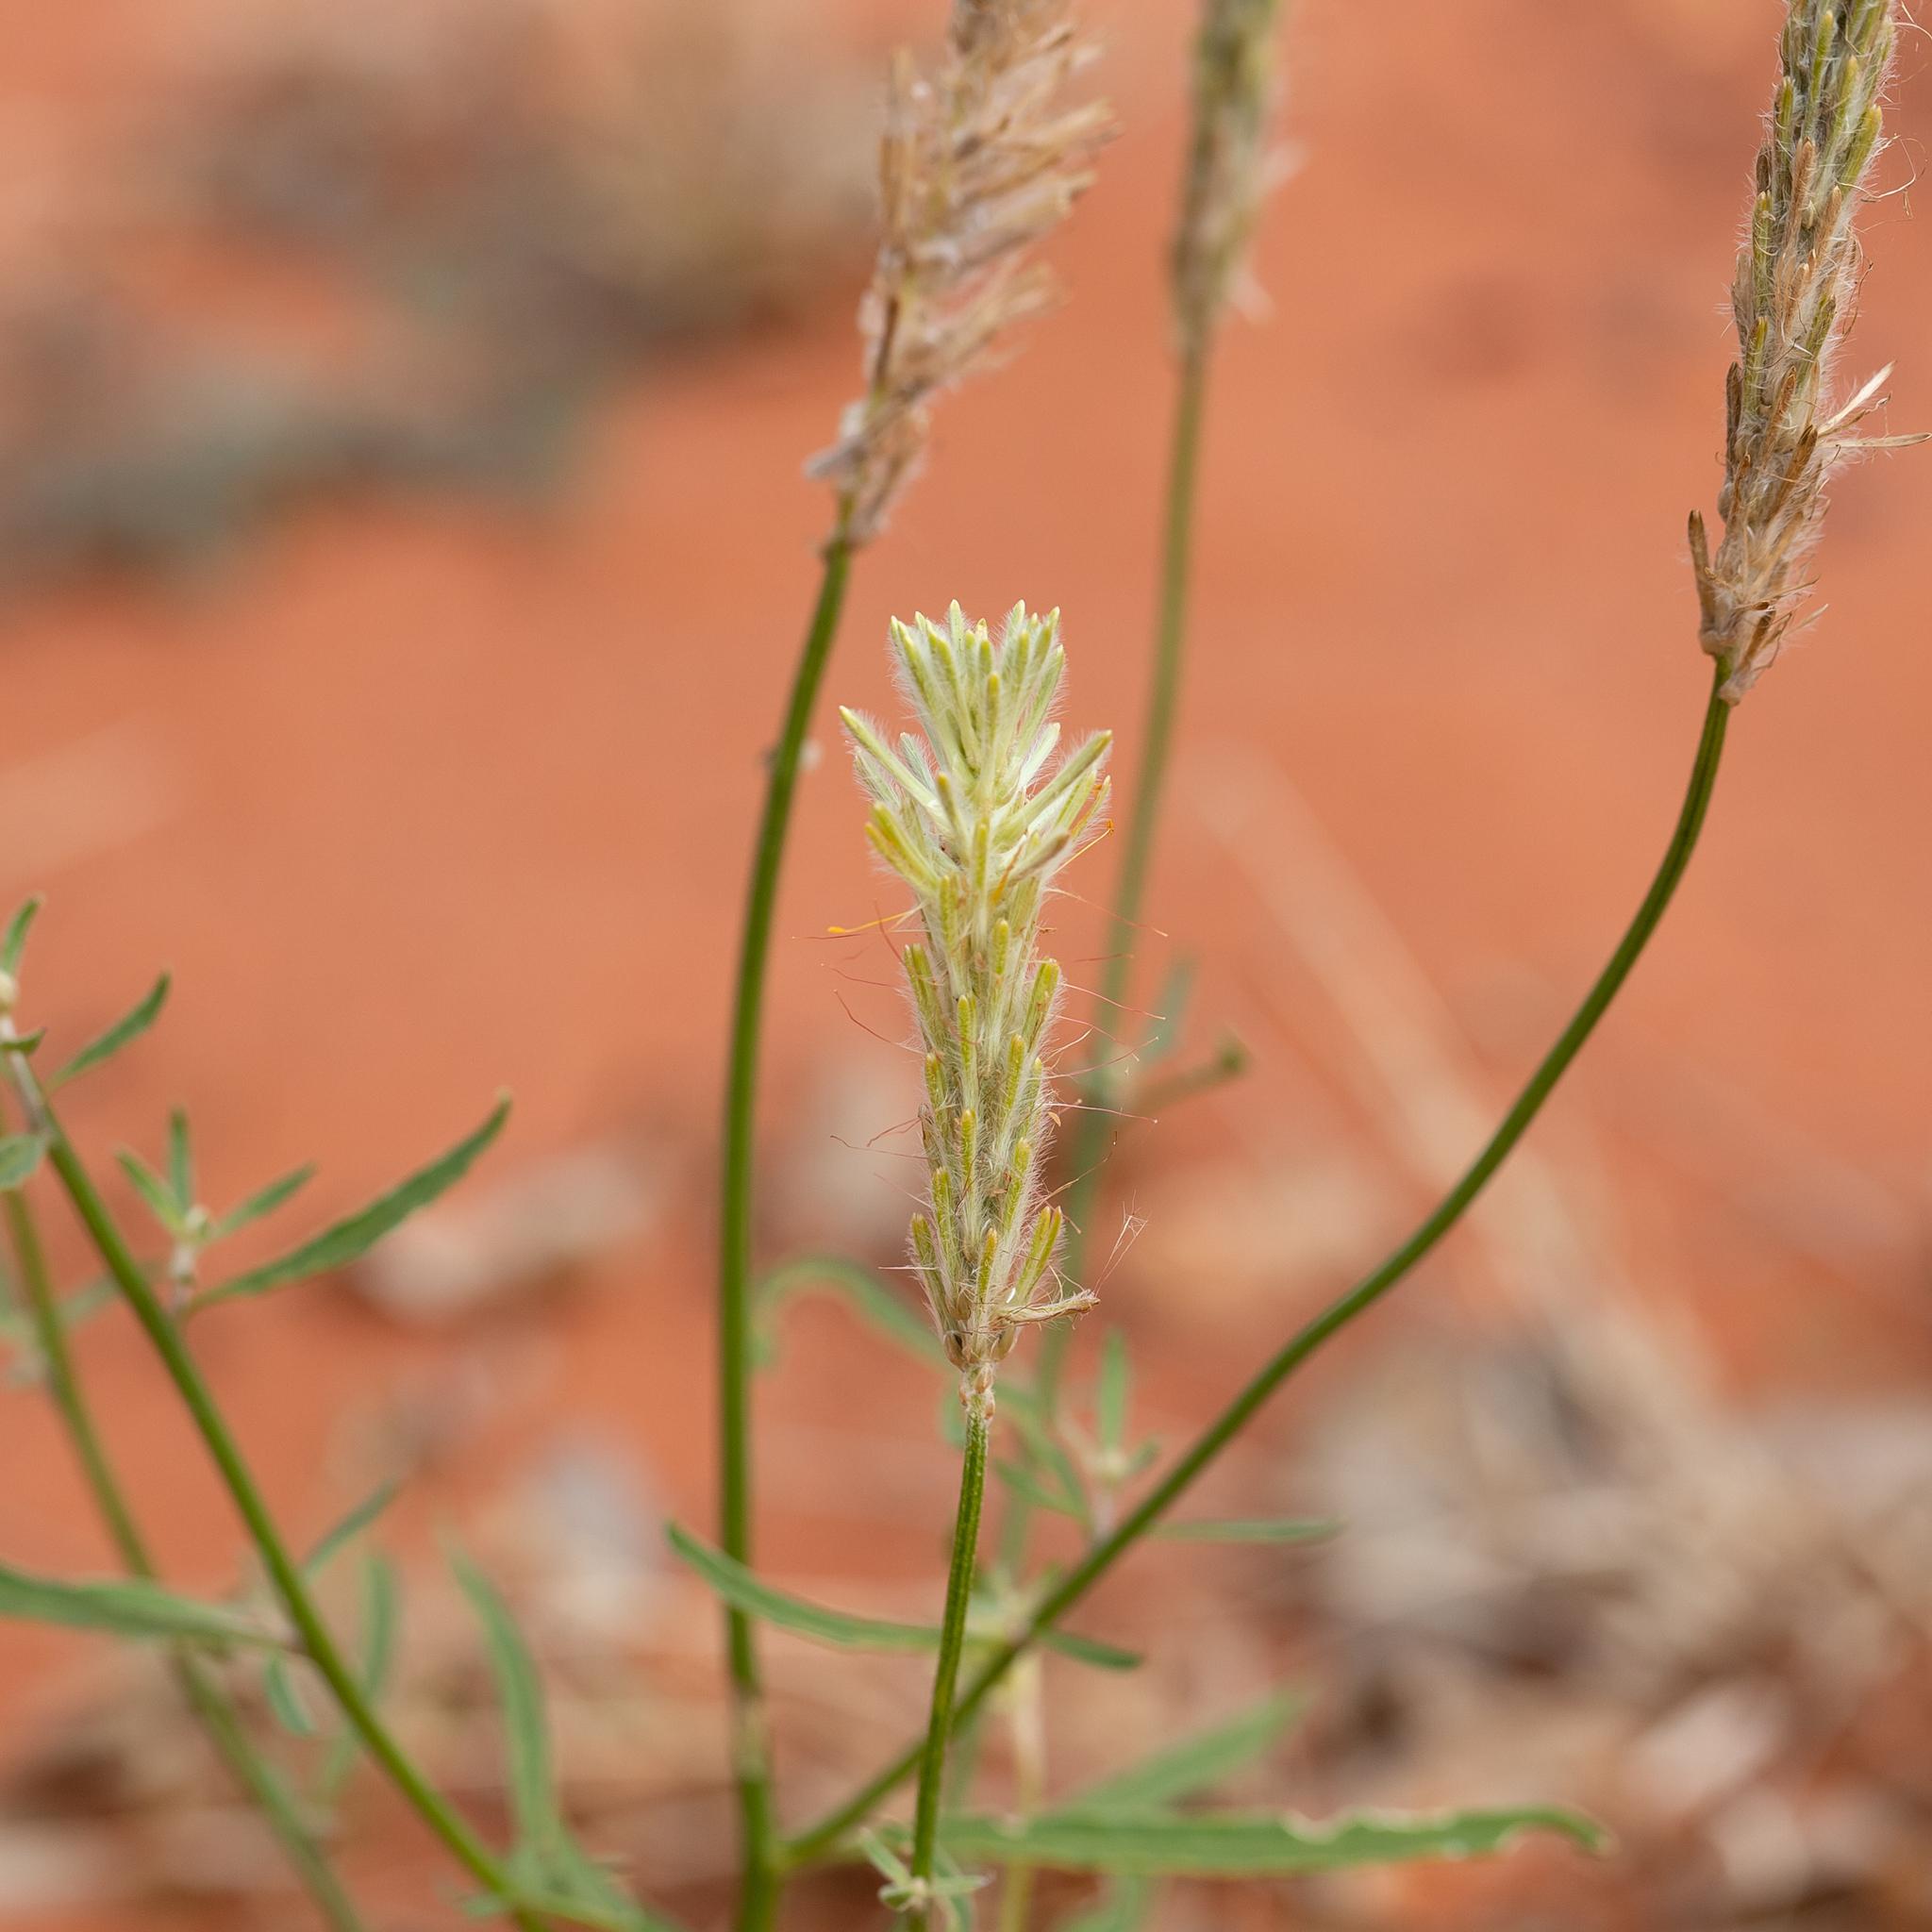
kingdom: Plantae
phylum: Tracheophyta
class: Magnoliopsida
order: Caryophyllales
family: Amaranthaceae
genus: Ptilotus
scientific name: Ptilotus polystachyus
